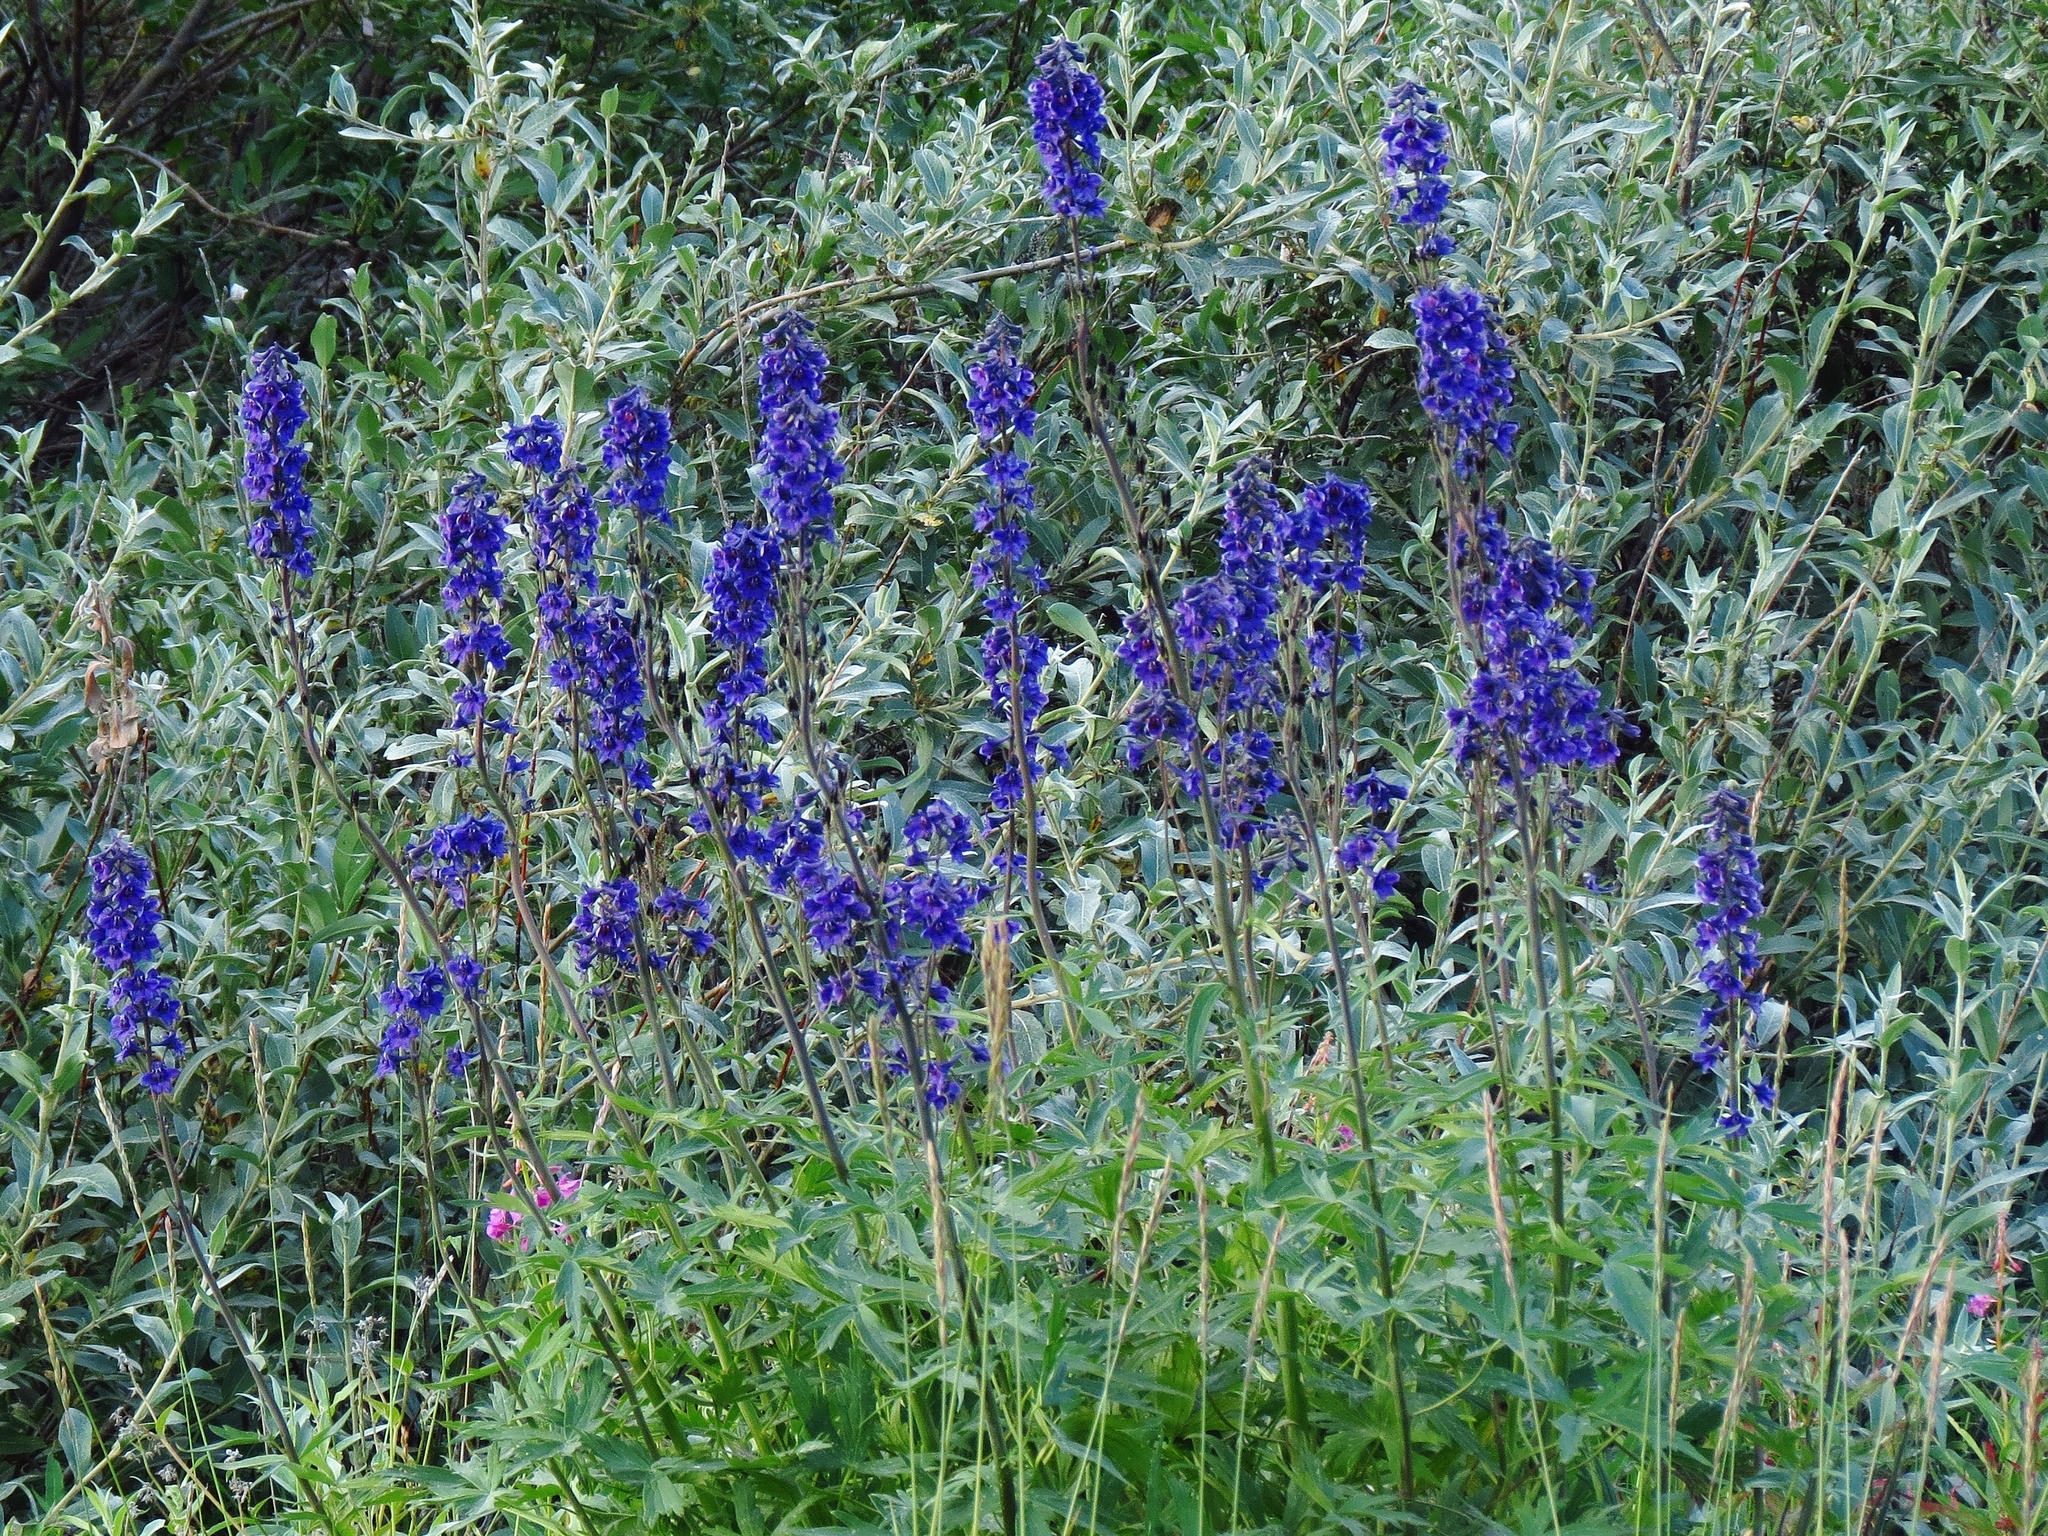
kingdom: Plantae
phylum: Tracheophyta
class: Magnoliopsida
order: Ranunculales
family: Ranunculaceae
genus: Delphinium
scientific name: Delphinium glaucum
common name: Brown's larkspur
